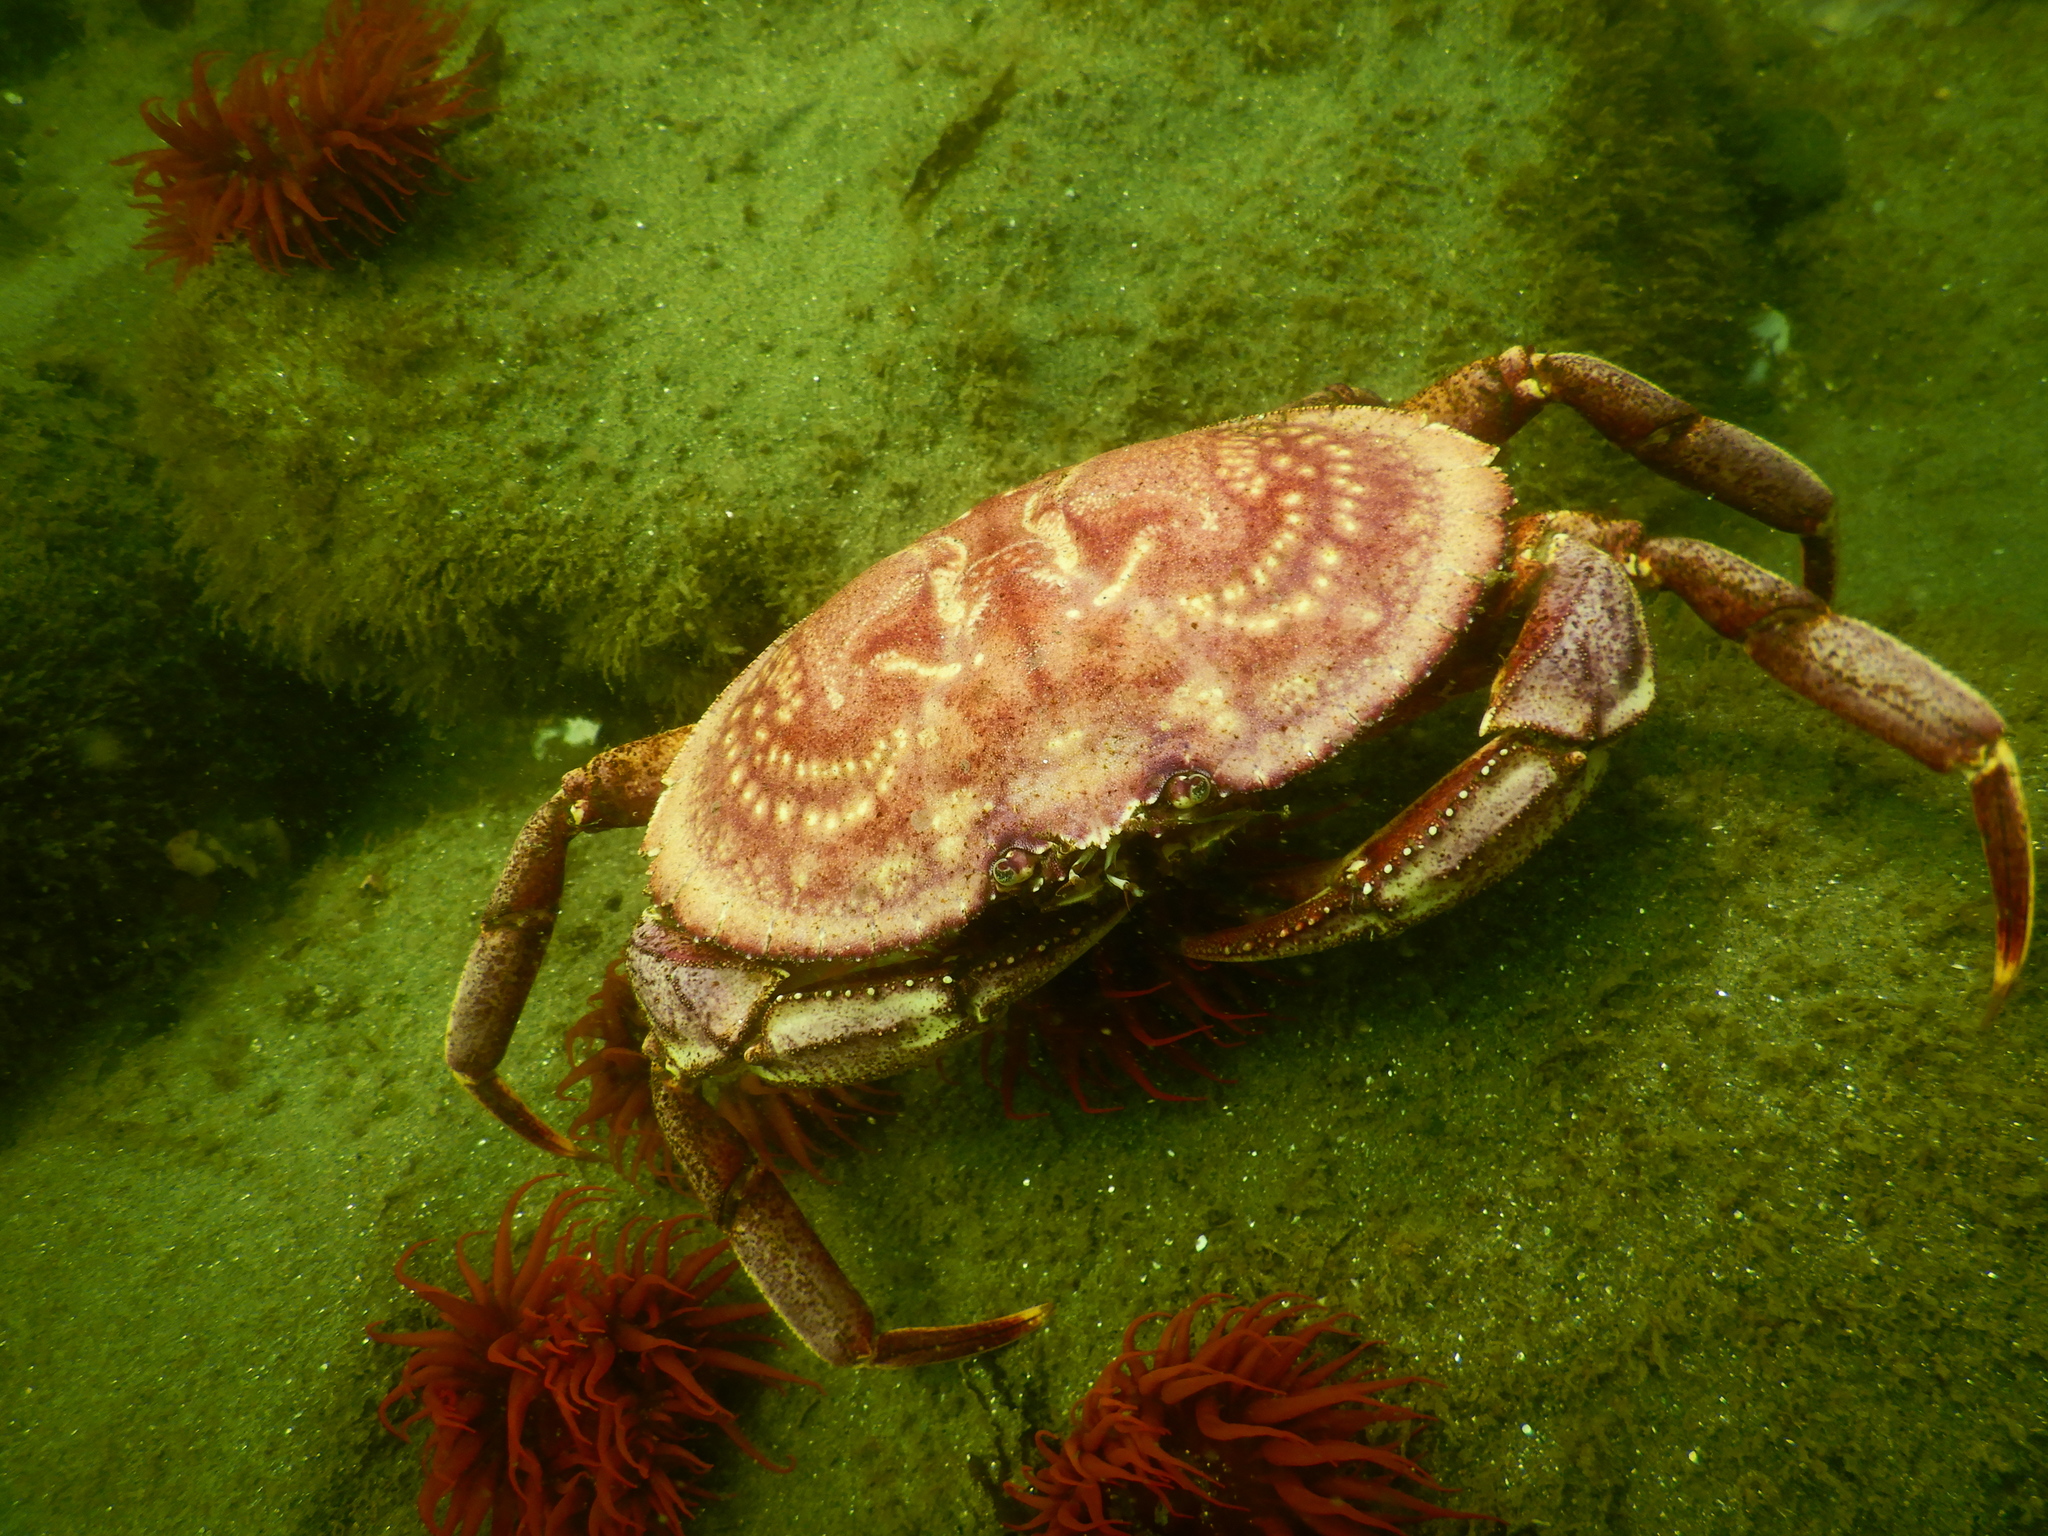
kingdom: Animalia
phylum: Arthropoda
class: Malacostraca
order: Decapoda
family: Cancridae
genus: Cancer
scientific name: Cancer plebejus
